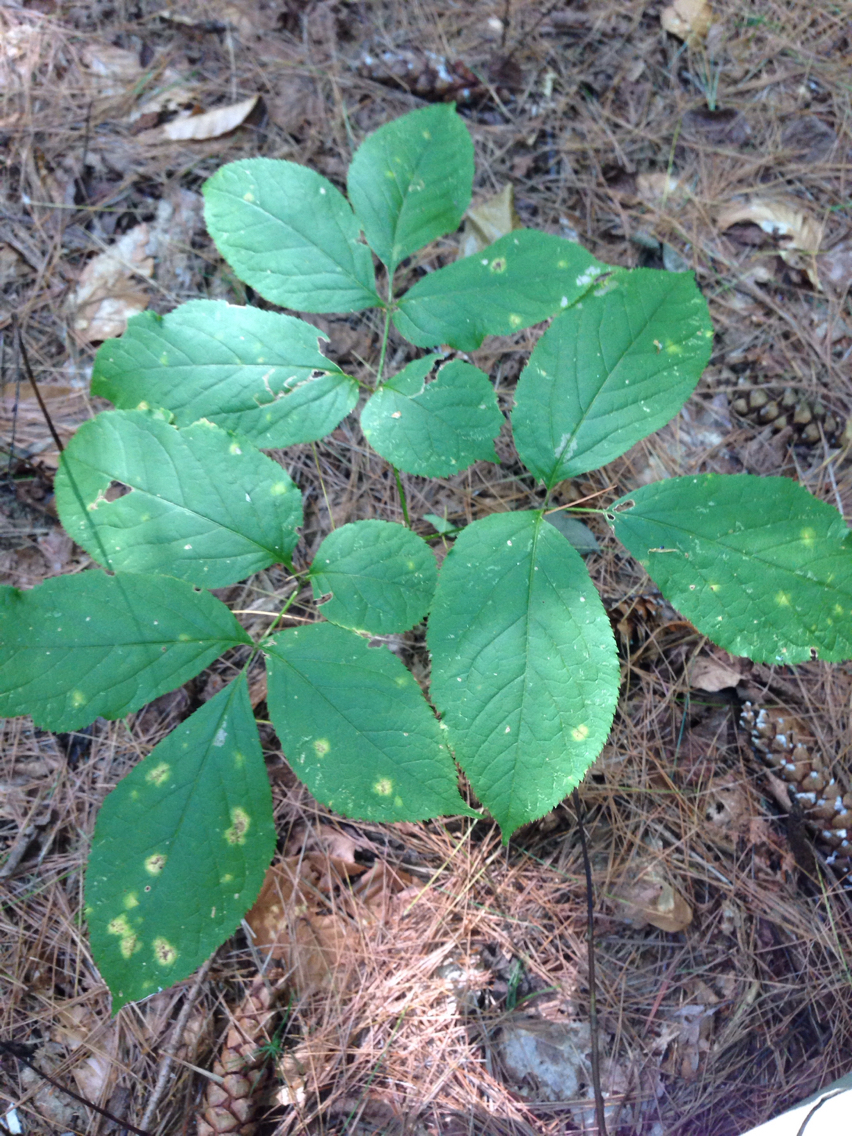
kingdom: Plantae
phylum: Tracheophyta
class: Magnoliopsida
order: Apiales
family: Araliaceae
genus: Aralia
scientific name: Aralia nudicaulis
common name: Wild sarsaparilla
